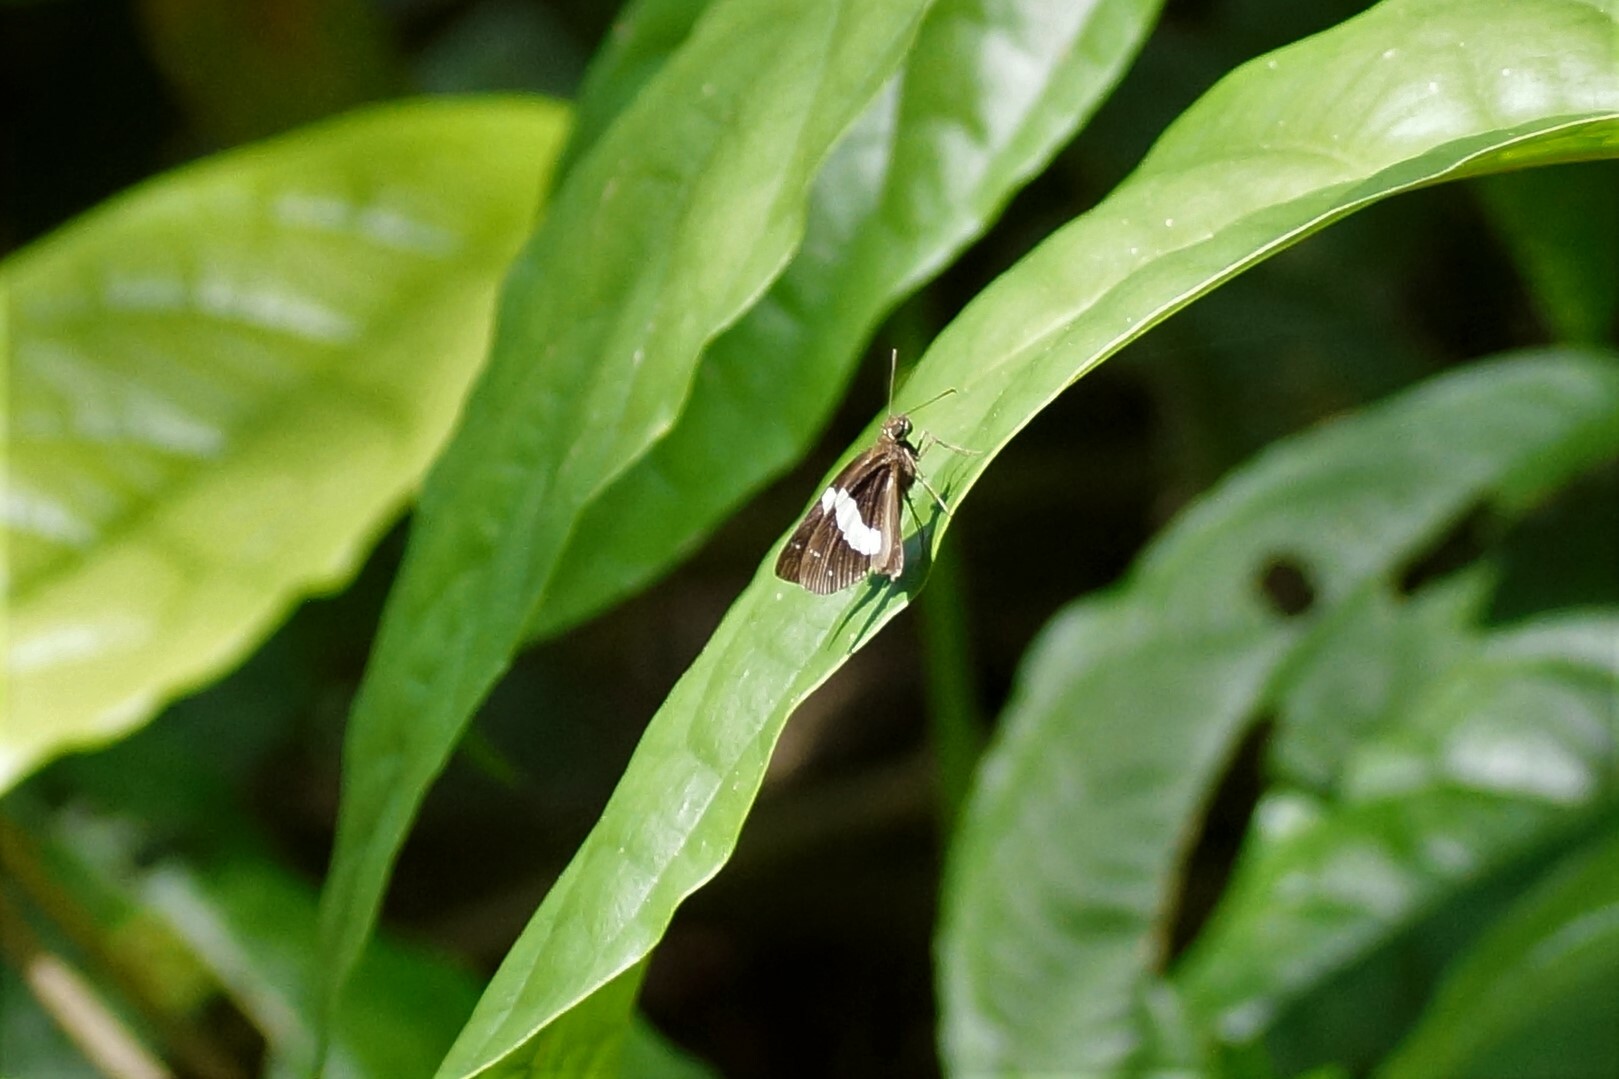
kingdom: Animalia
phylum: Arthropoda
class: Insecta
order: Lepidoptera
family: Hesperiidae
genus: Notocrypta
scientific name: Notocrypta waigensis
